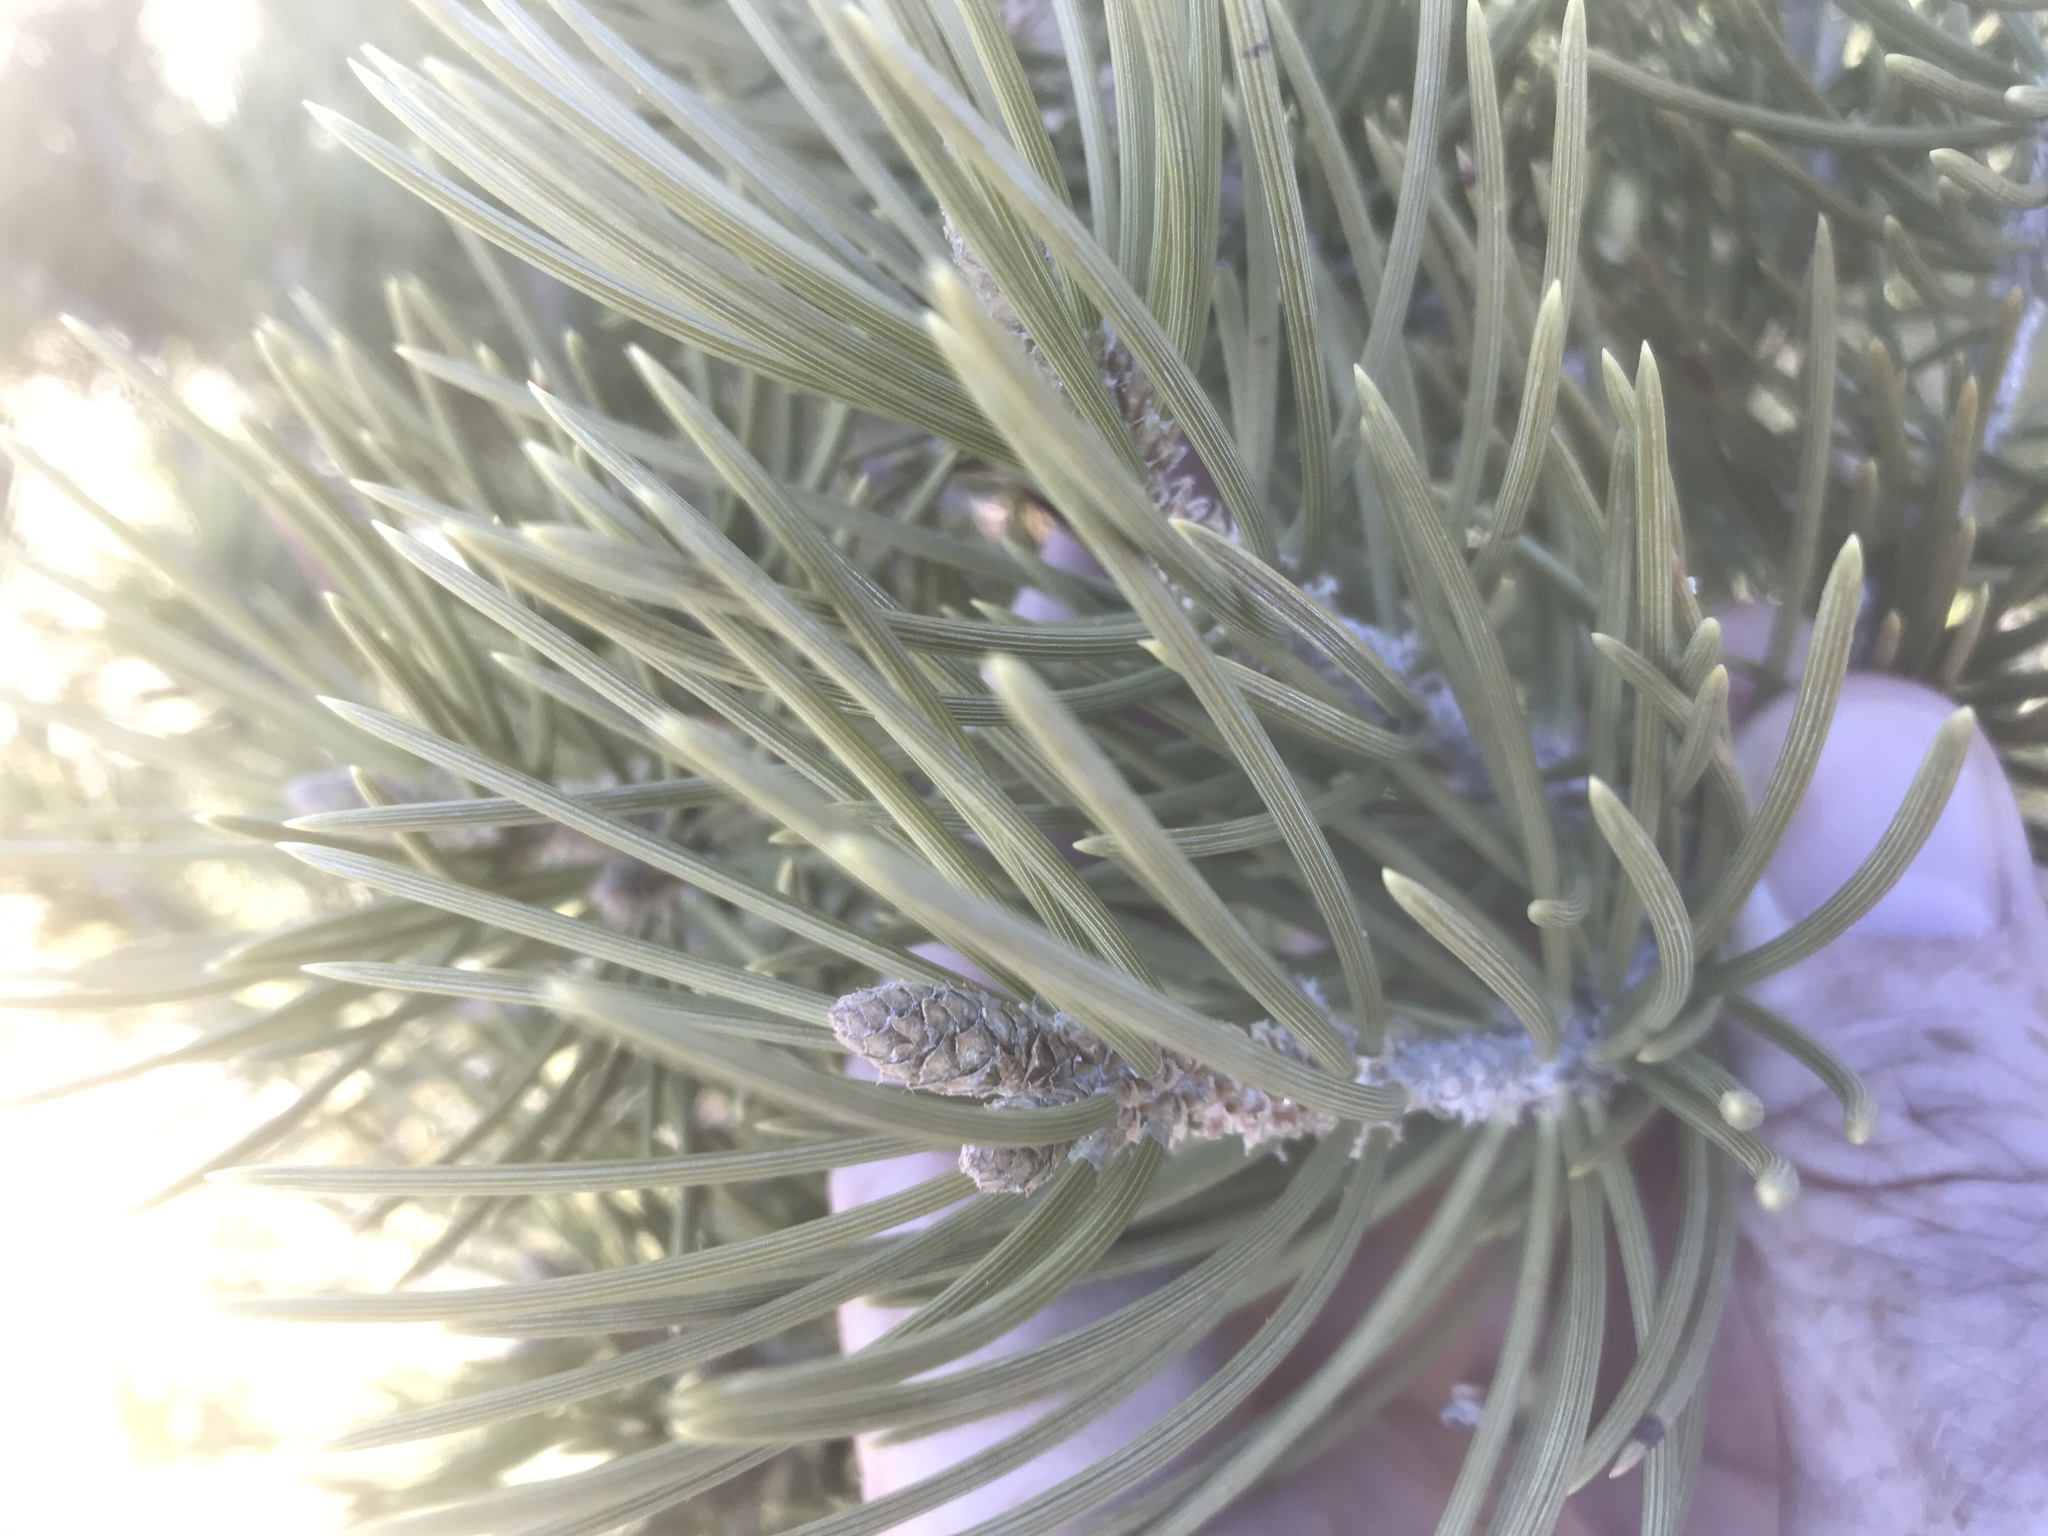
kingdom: Plantae
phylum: Tracheophyta
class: Pinopsida
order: Pinales
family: Pinaceae
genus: Pinus
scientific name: Pinus monophylla
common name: One-leaved nut pine
